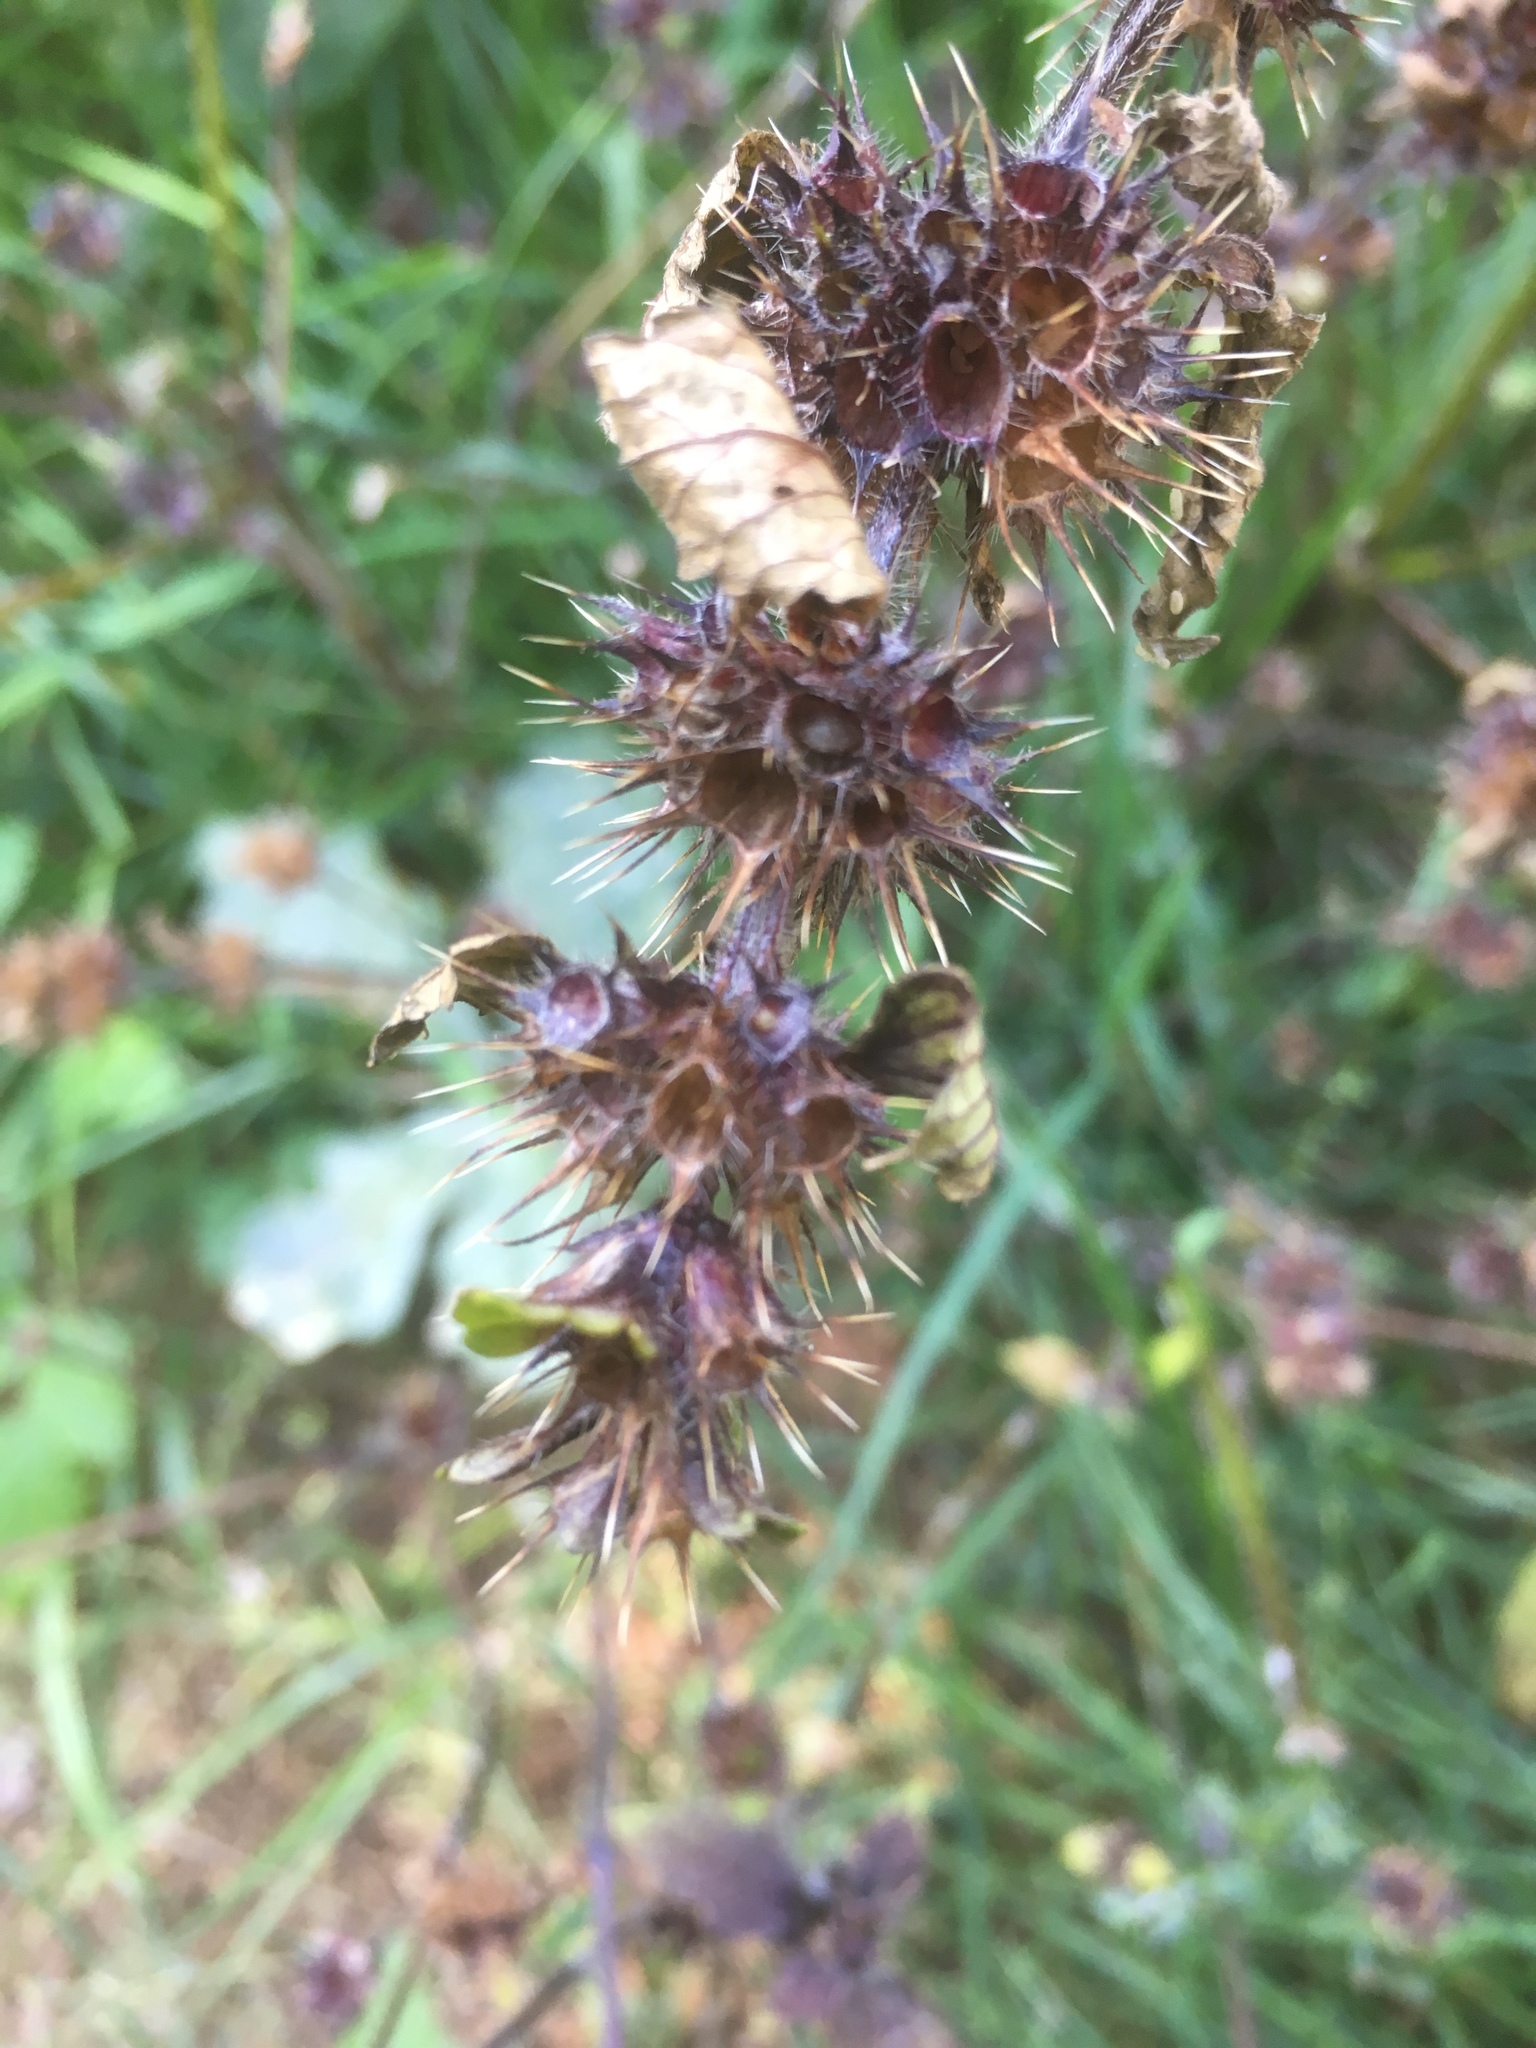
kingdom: Plantae
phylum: Tracheophyta
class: Magnoliopsida
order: Lamiales
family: Lamiaceae
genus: Galeopsis
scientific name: Galeopsis tetrahit
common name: Common hemp-nettle
